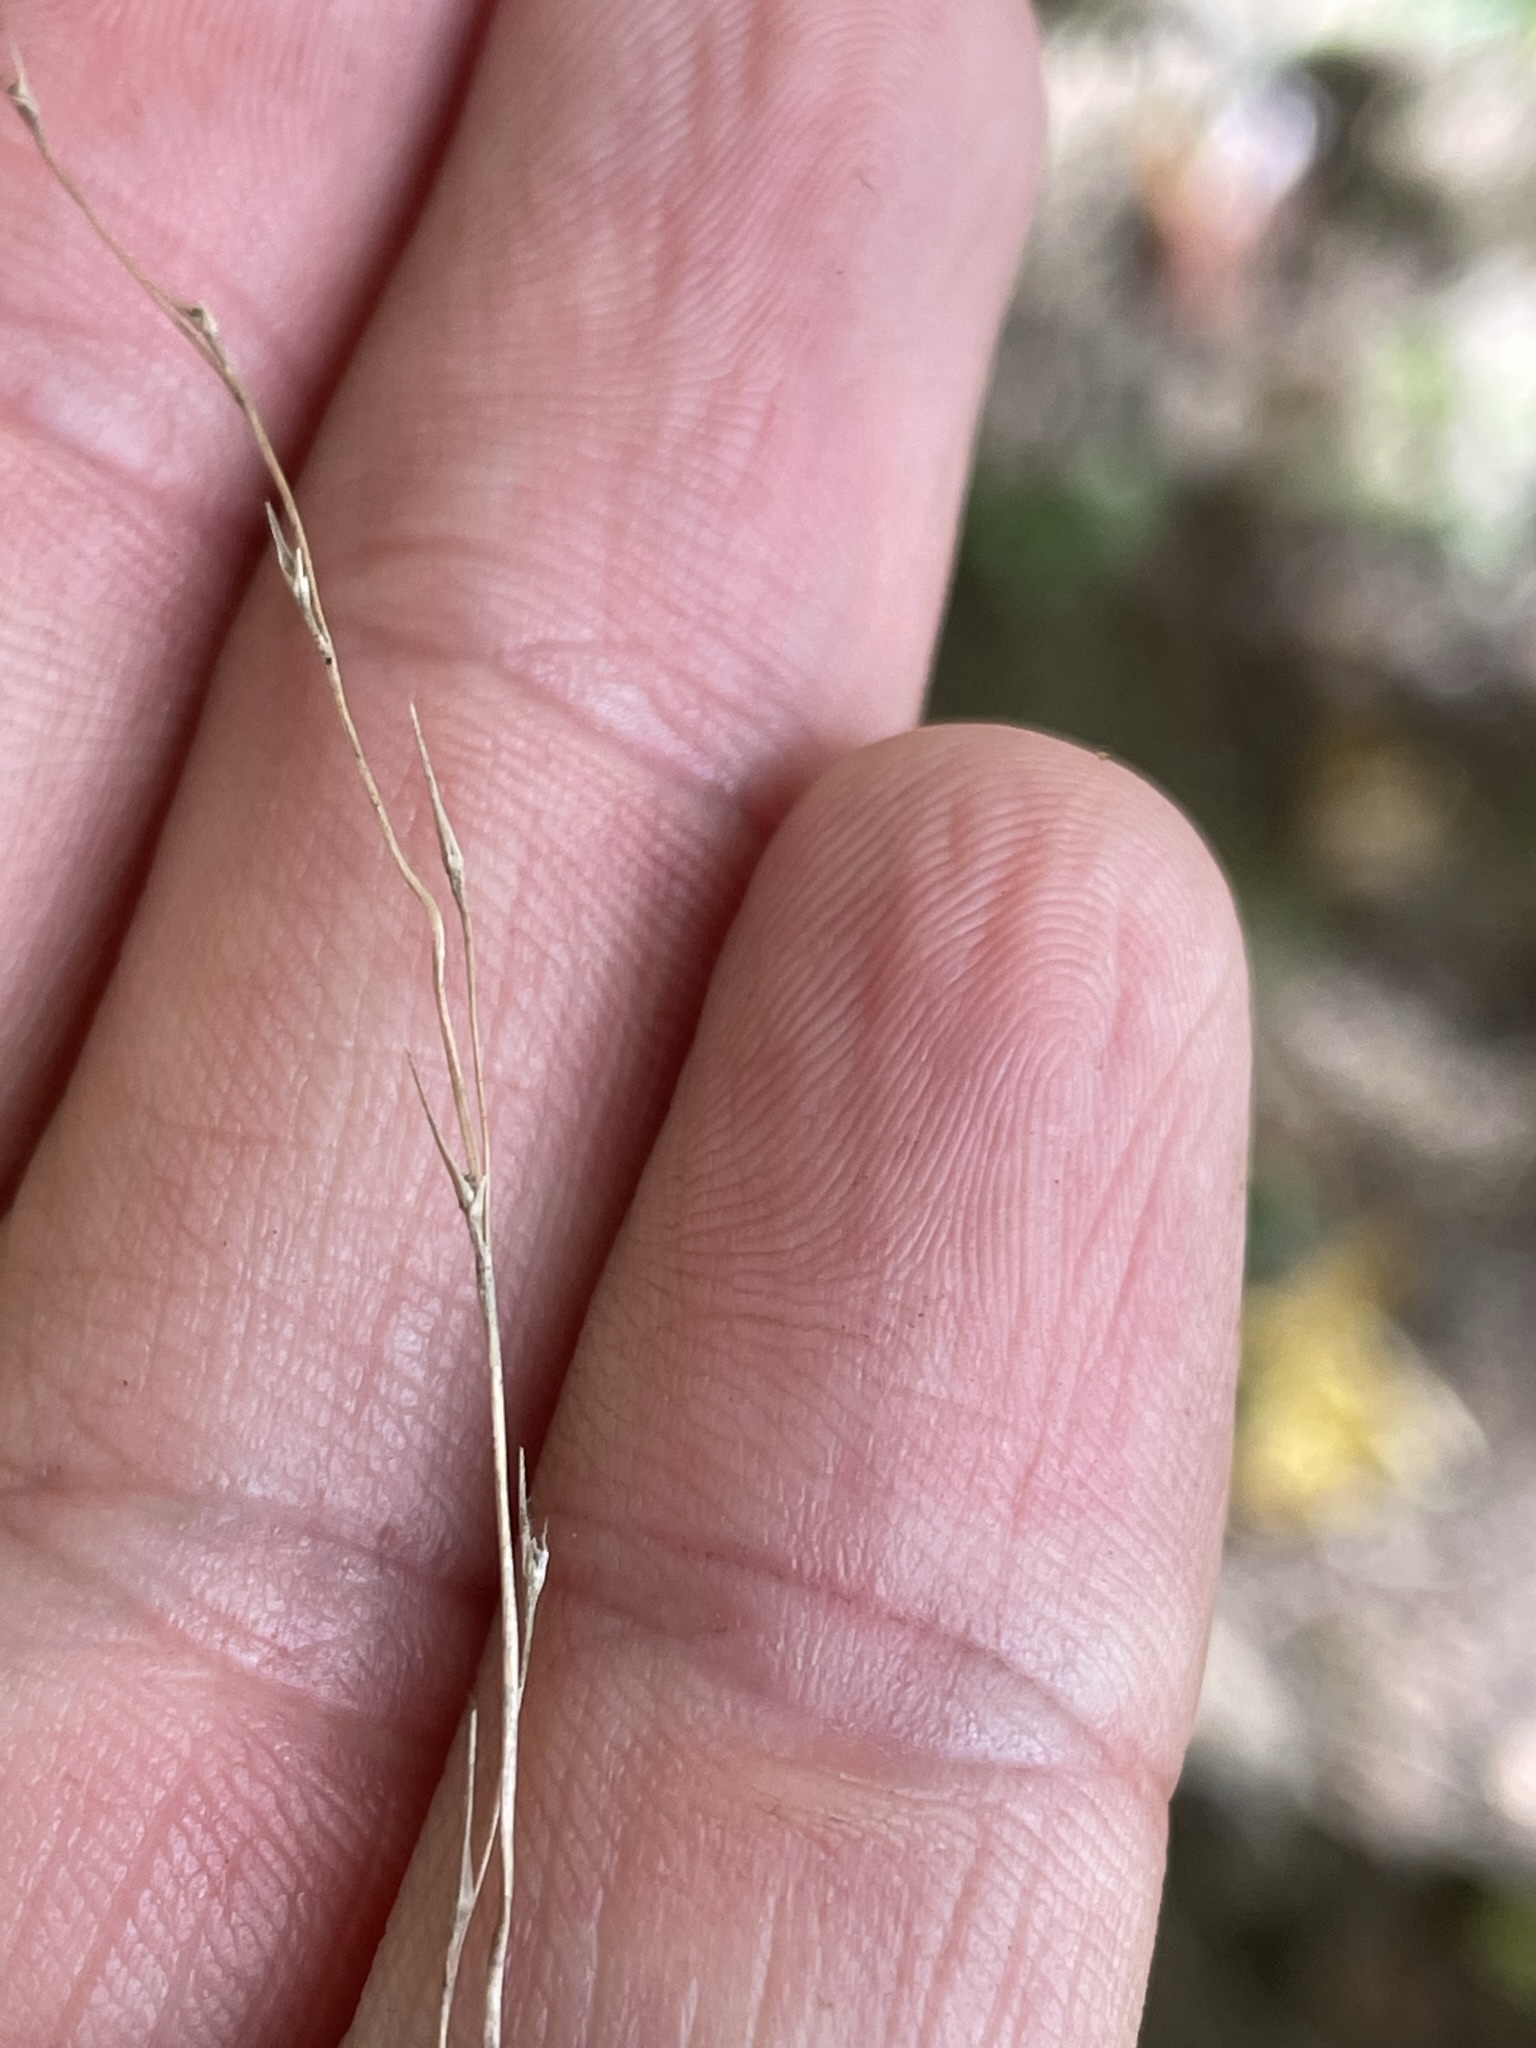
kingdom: Plantae
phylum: Tracheophyta
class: Liliopsida
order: Poales
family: Poaceae
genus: Brachyelytrum
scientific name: Brachyelytrum erectum
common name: Bearded shorthusk
